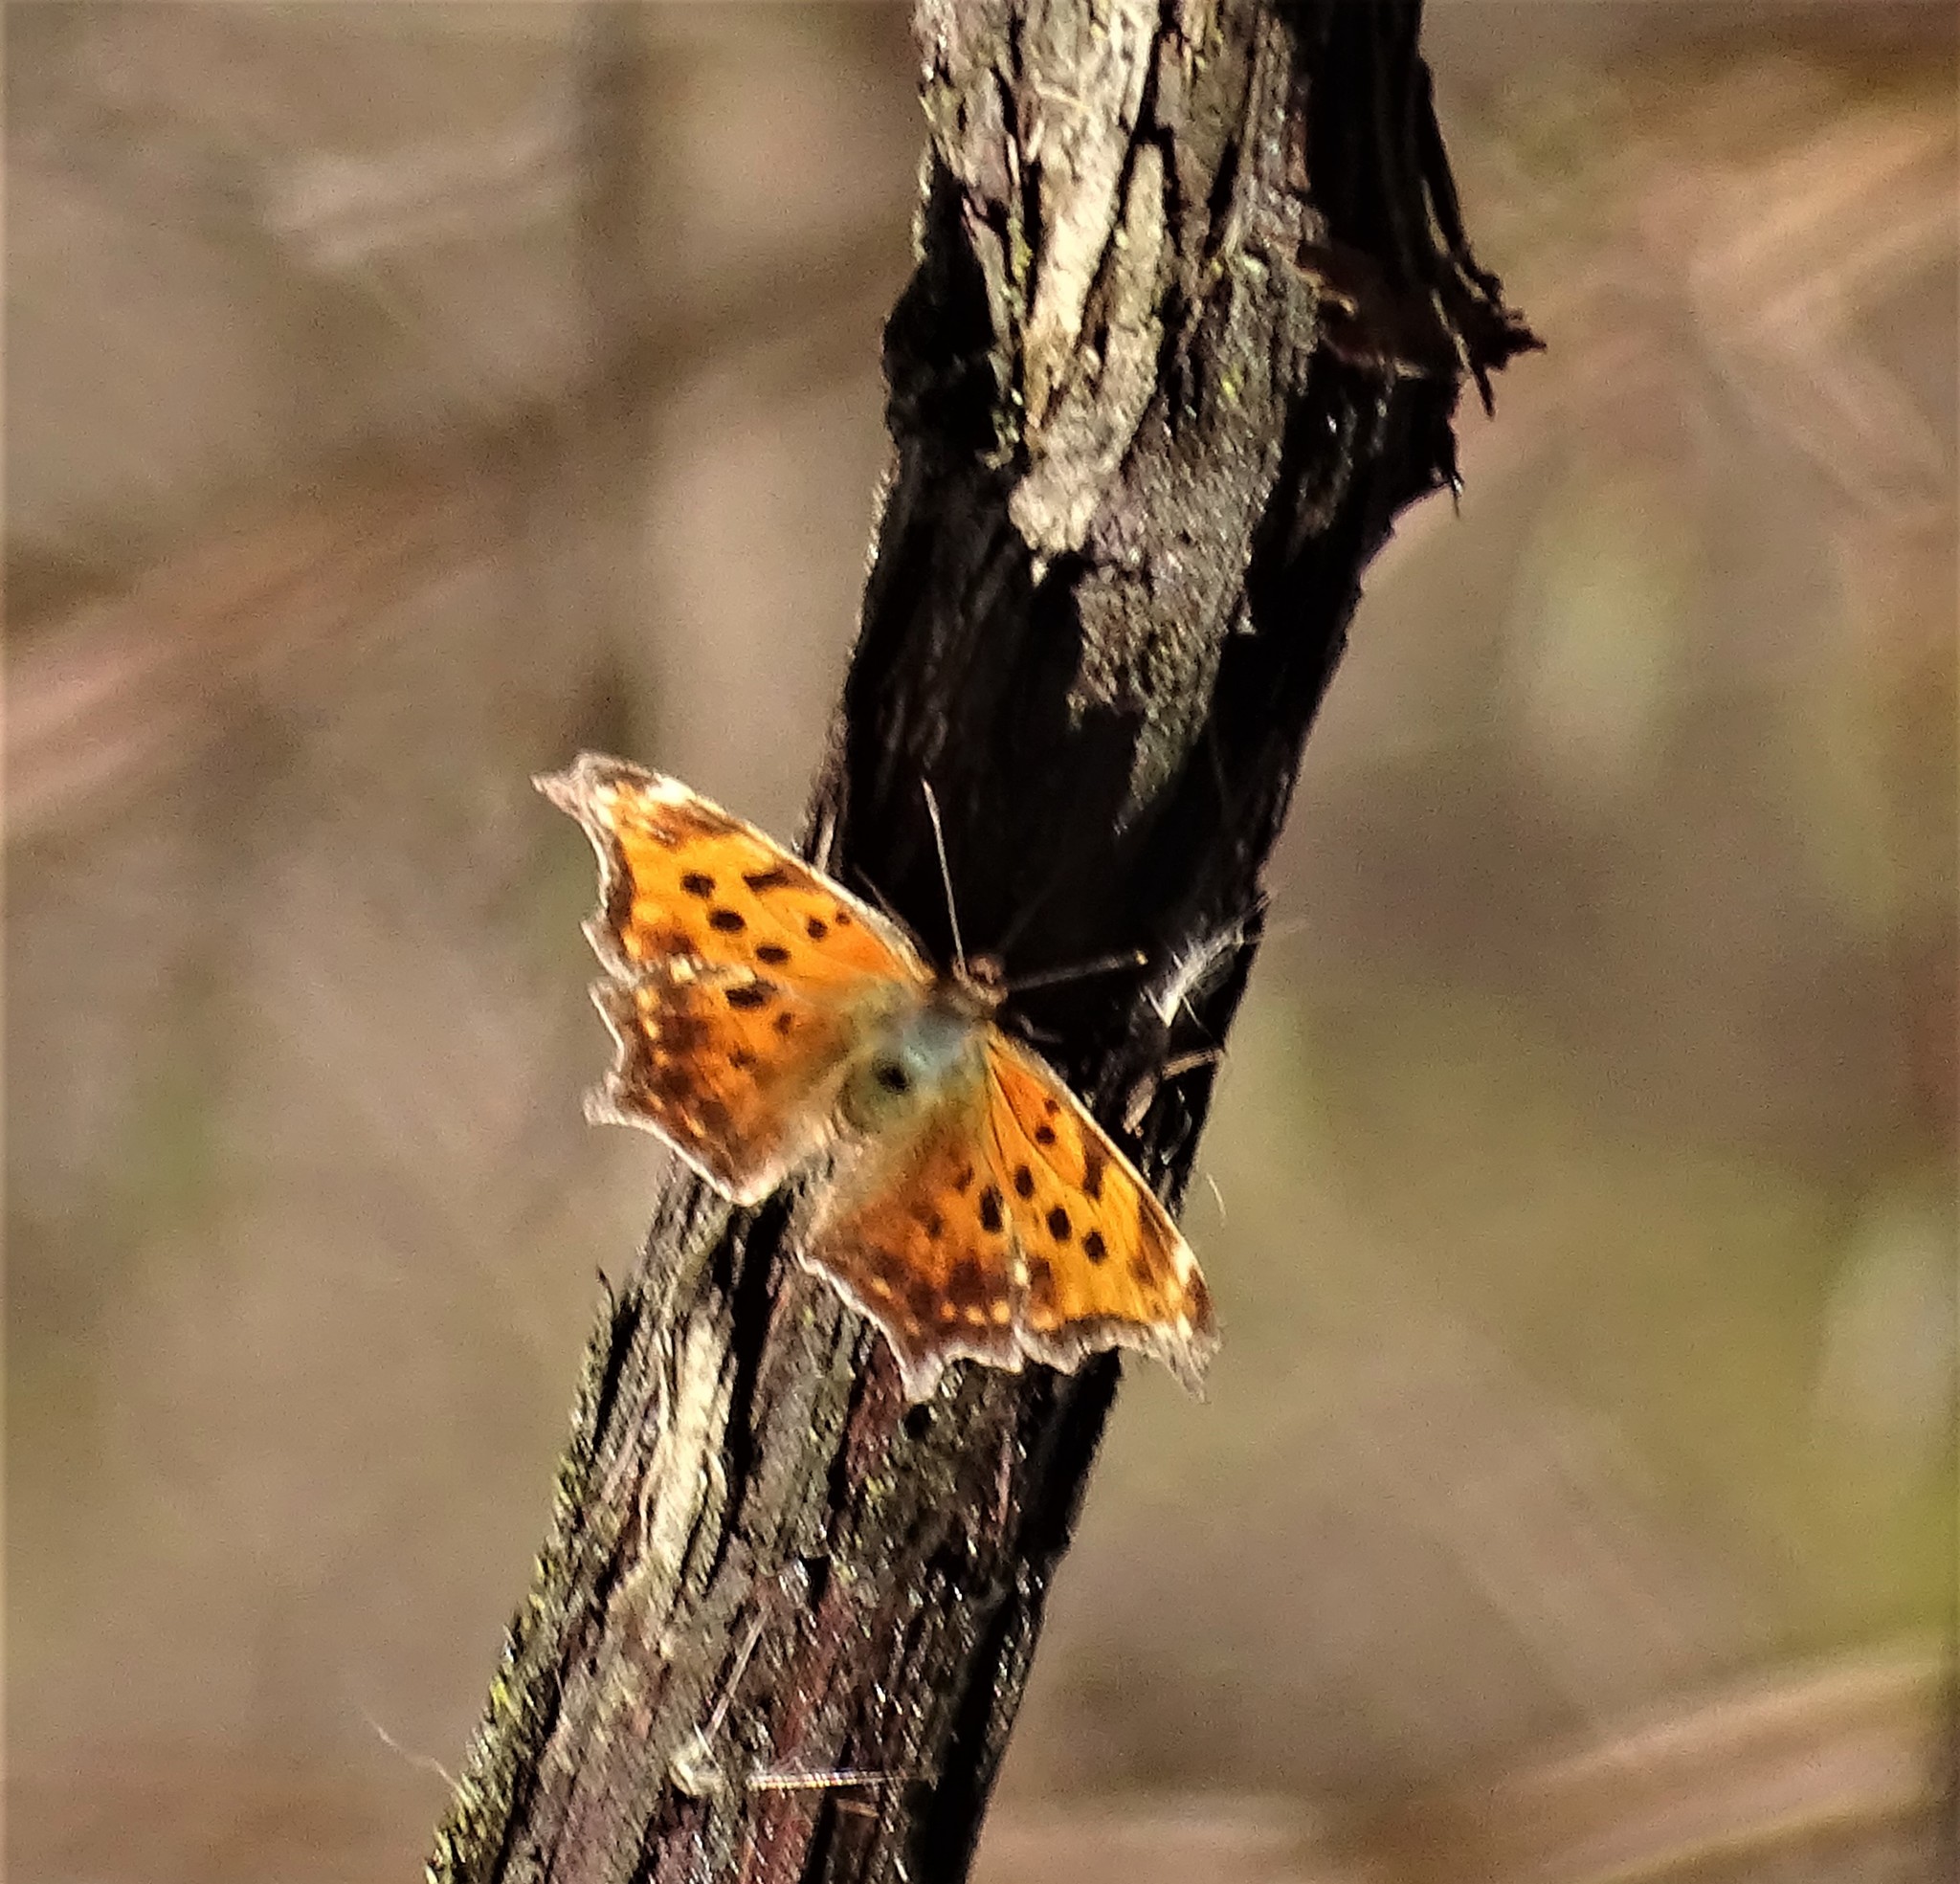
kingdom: Animalia
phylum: Arthropoda
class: Insecta
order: Lepidoptera
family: Nymphalidae
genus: Polygonia
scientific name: Polygonia comma
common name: Eastern comma
